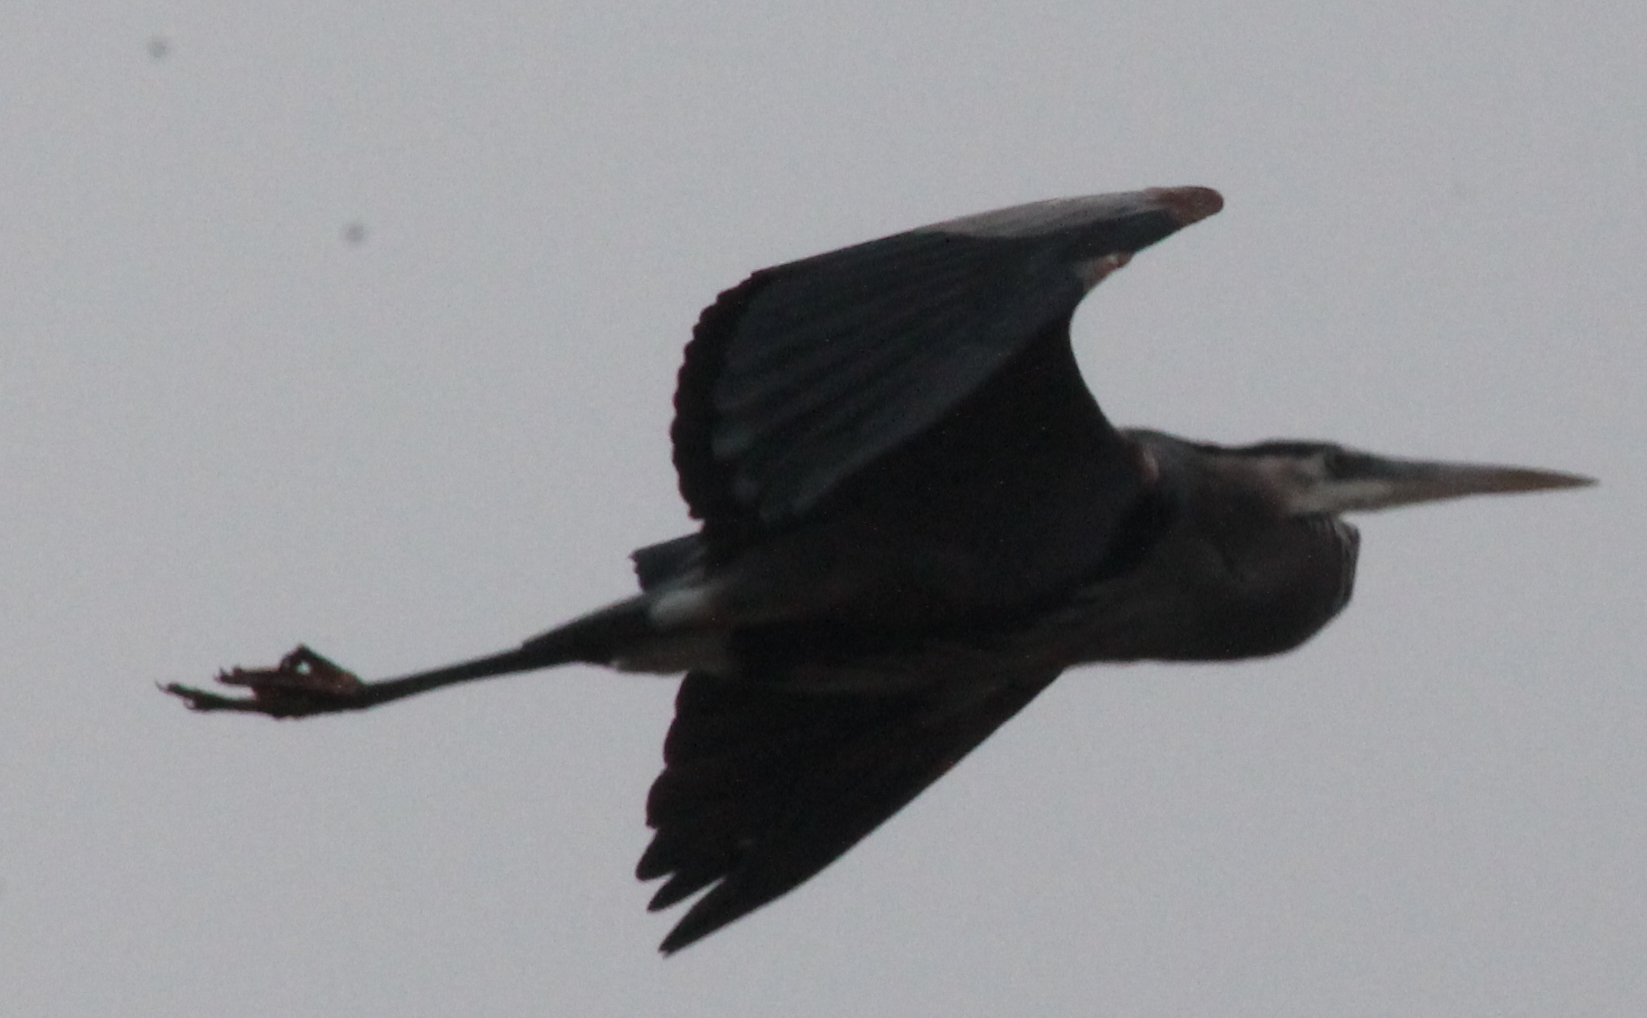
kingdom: Animalia
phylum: Chordata
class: Aves
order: Pelecaniformes
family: Ardeidae
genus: Ardea
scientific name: Ardea herodias
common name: Great blue heron
